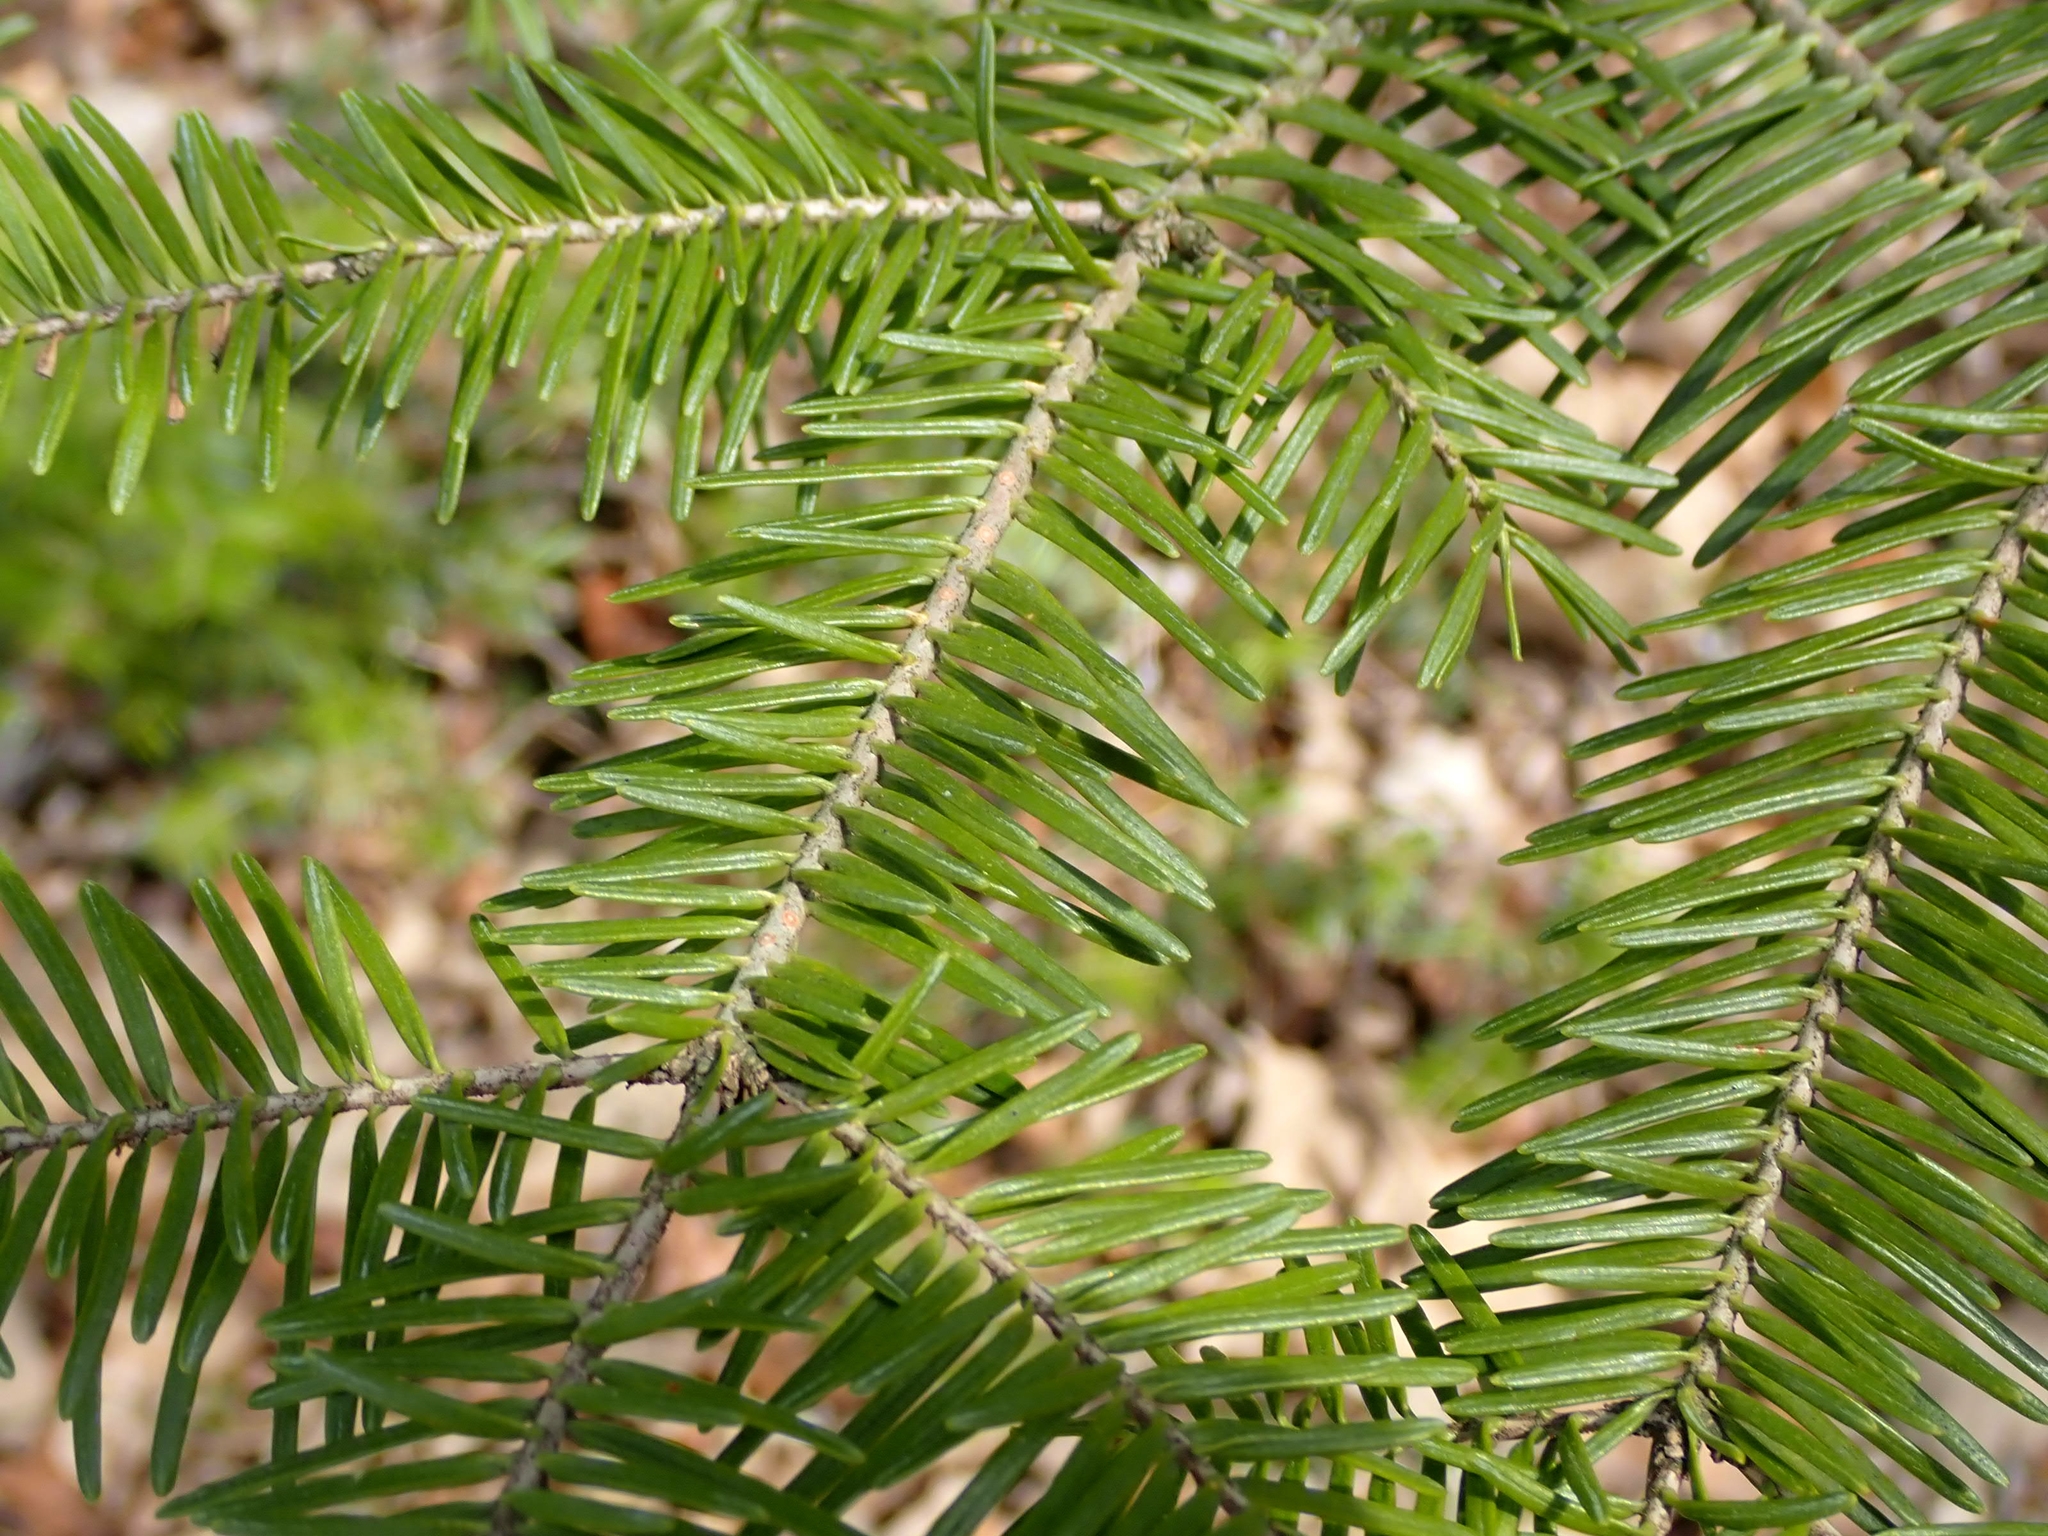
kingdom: Plantae
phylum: Tracheophyta
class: Pinopsida
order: Pinales
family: Pinaceae
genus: Abies
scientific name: Abies balsamea
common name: Balsam fir
